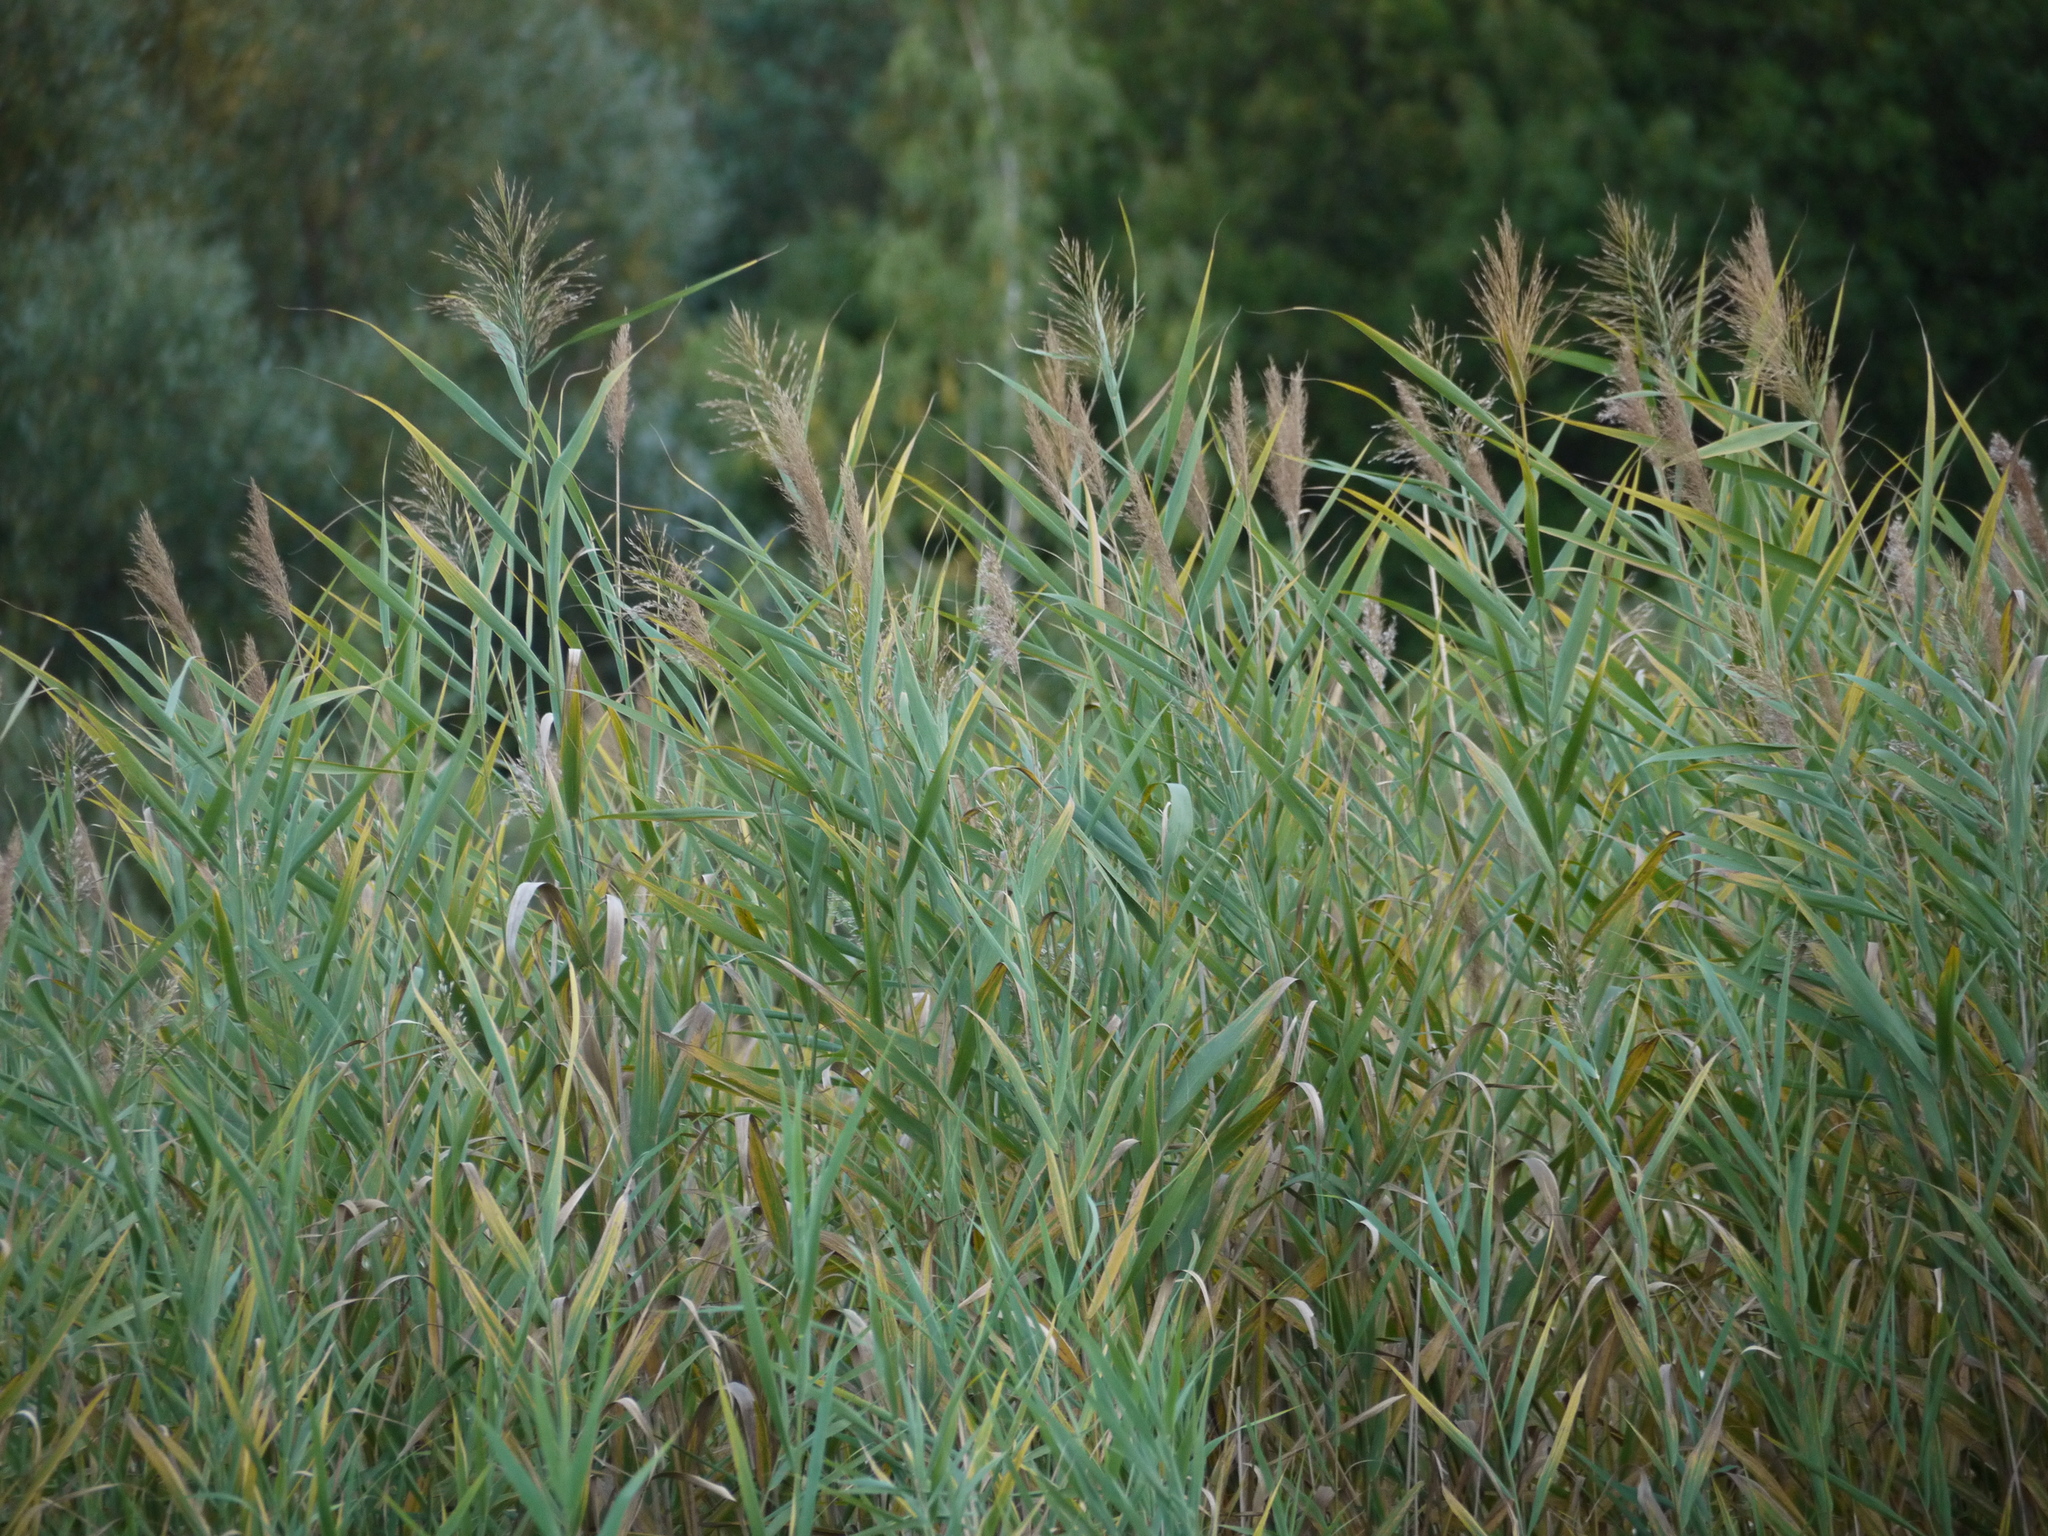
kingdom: Plantae
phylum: Tracheophyta
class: Liliopsida
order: Poales
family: Poaceae
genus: Phragmites
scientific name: Phragmites australis
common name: Common reed
